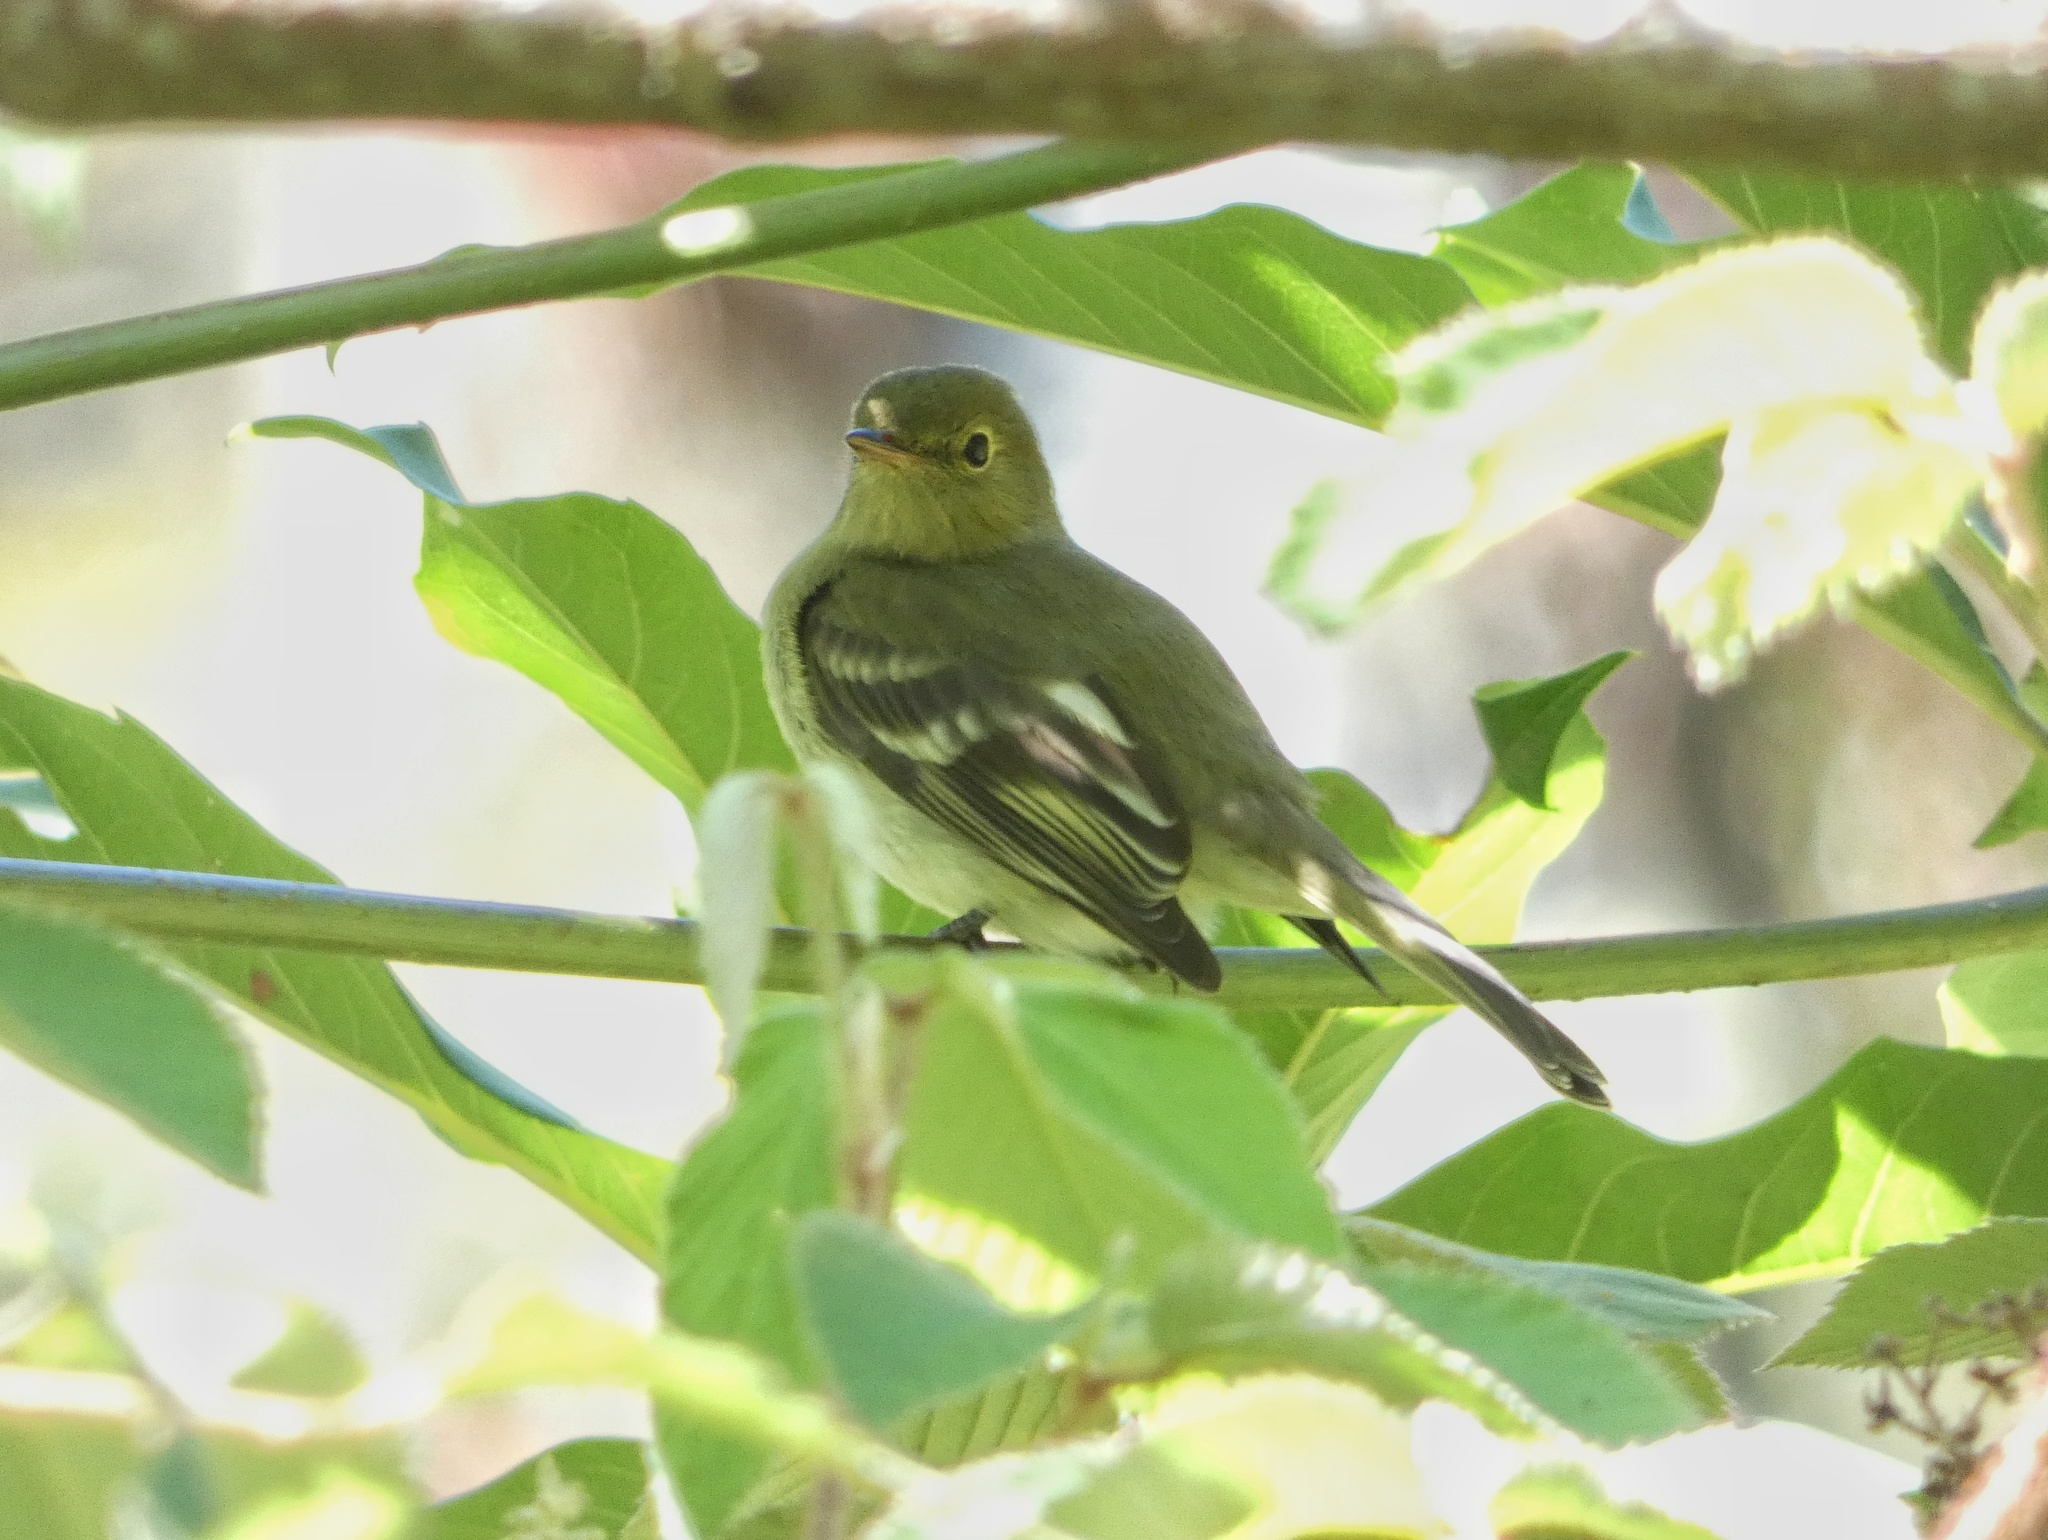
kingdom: Animalia
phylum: Chordata
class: Aves
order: Passeriformes
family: Tyrannidae
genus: Elaenia
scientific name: Elaenia frantzii
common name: Mountain elaenia
